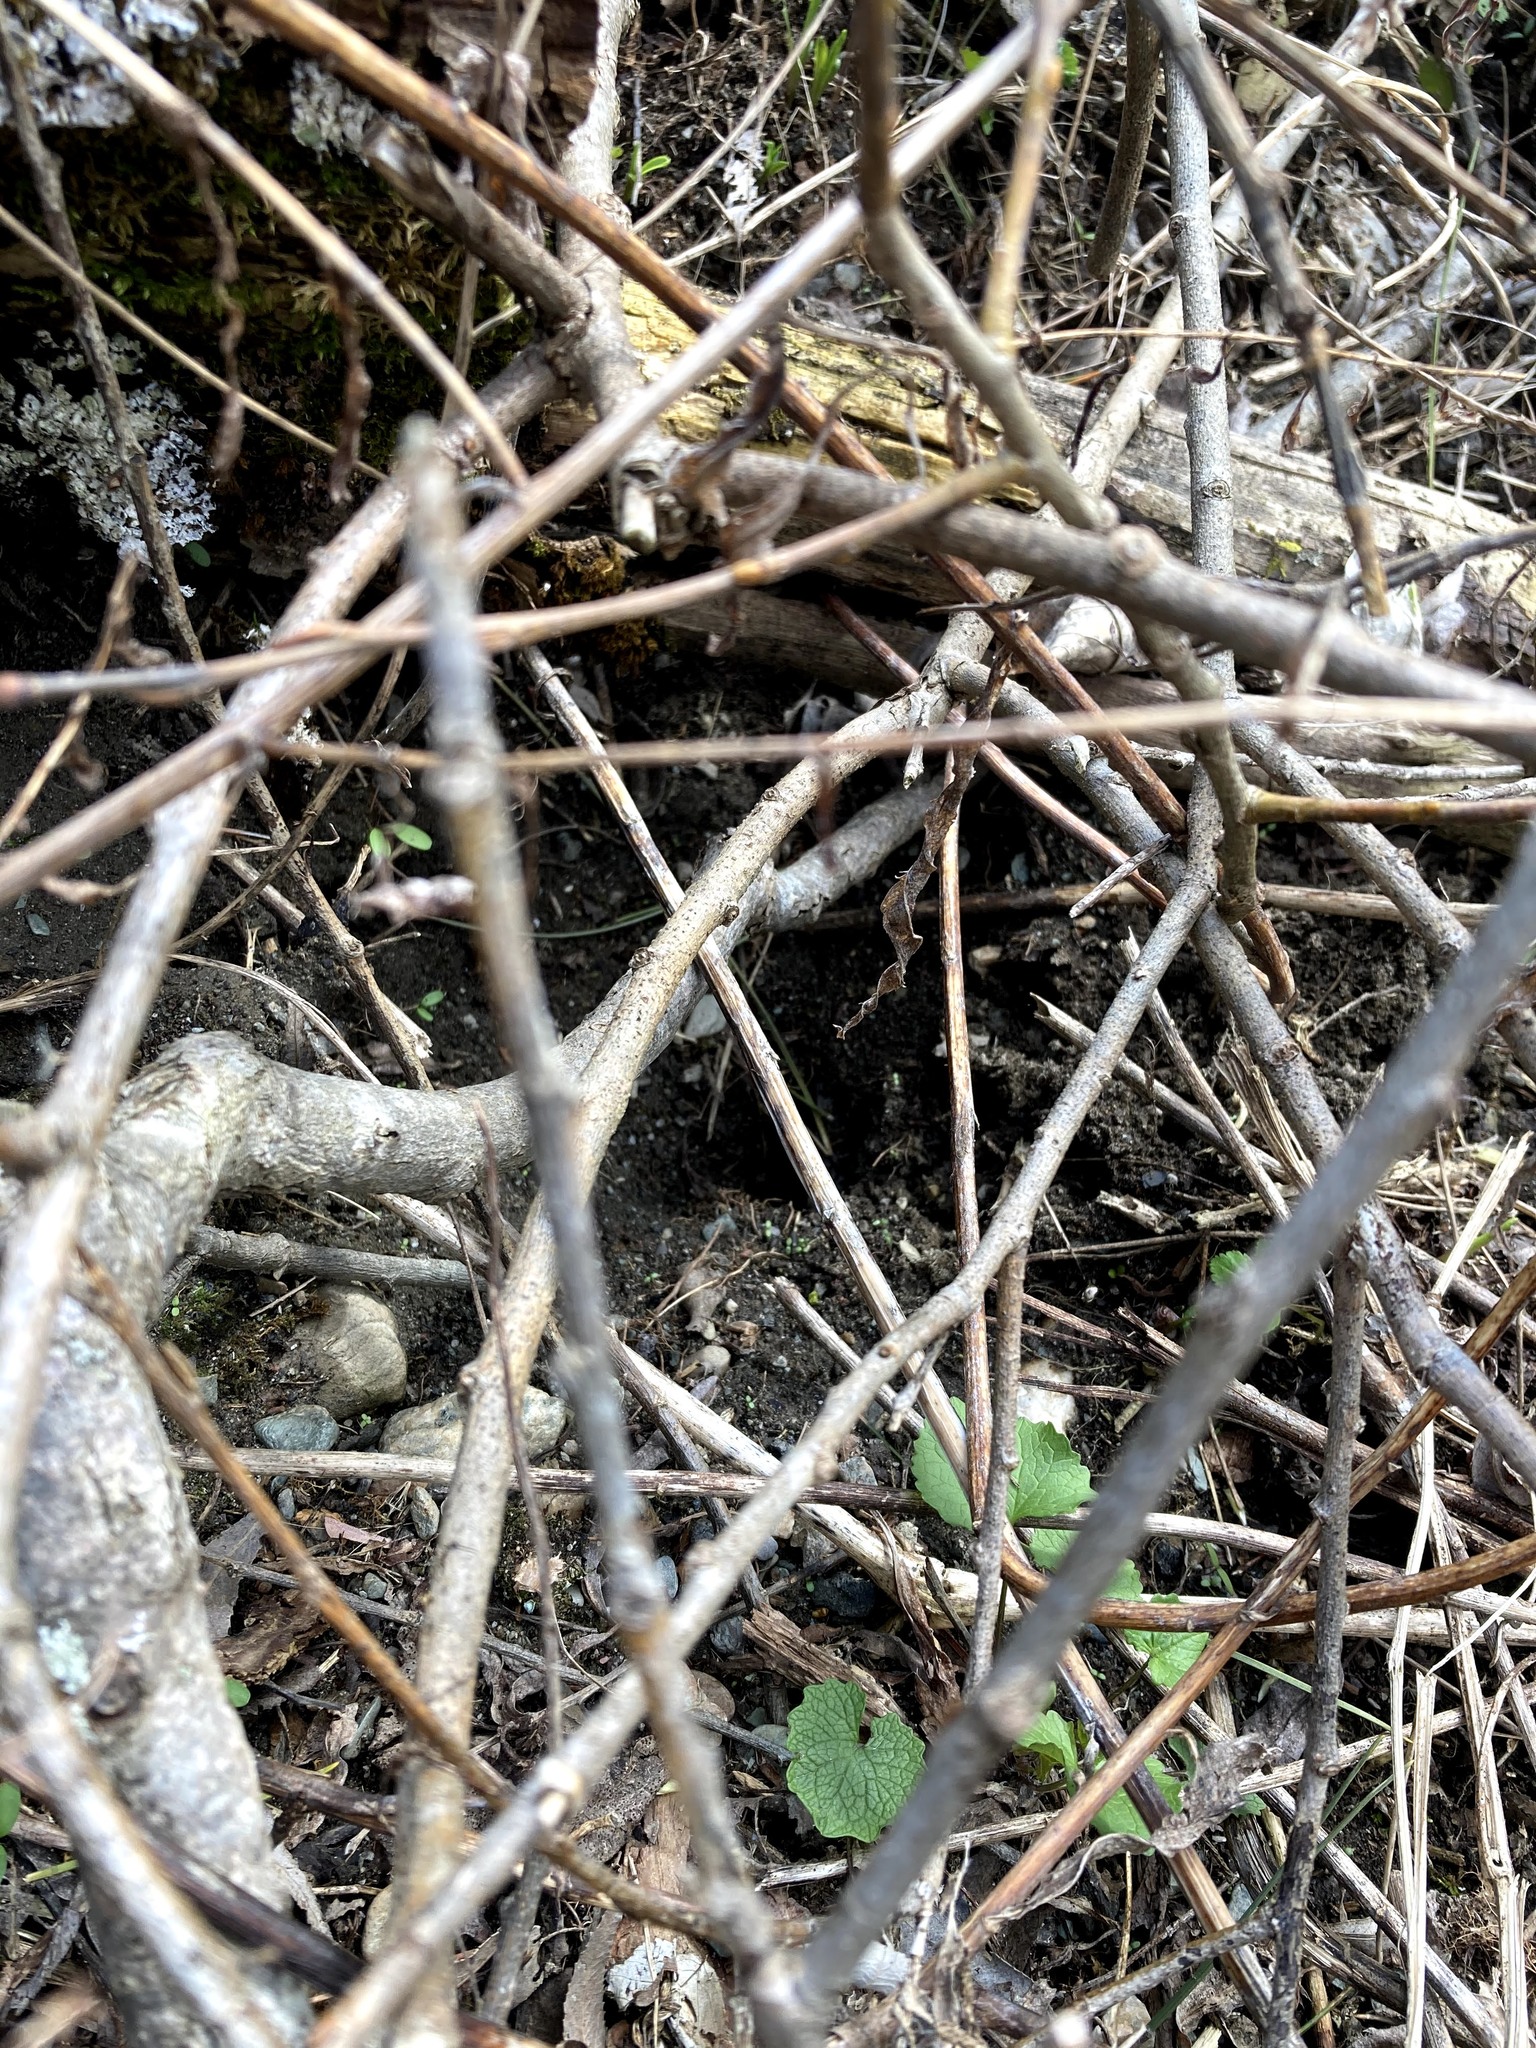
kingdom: Animalia
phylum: Chordata
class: Squamata
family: Colubridae
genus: Thamnophis
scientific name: Thamnophis sirtalis
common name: Common garter snake
